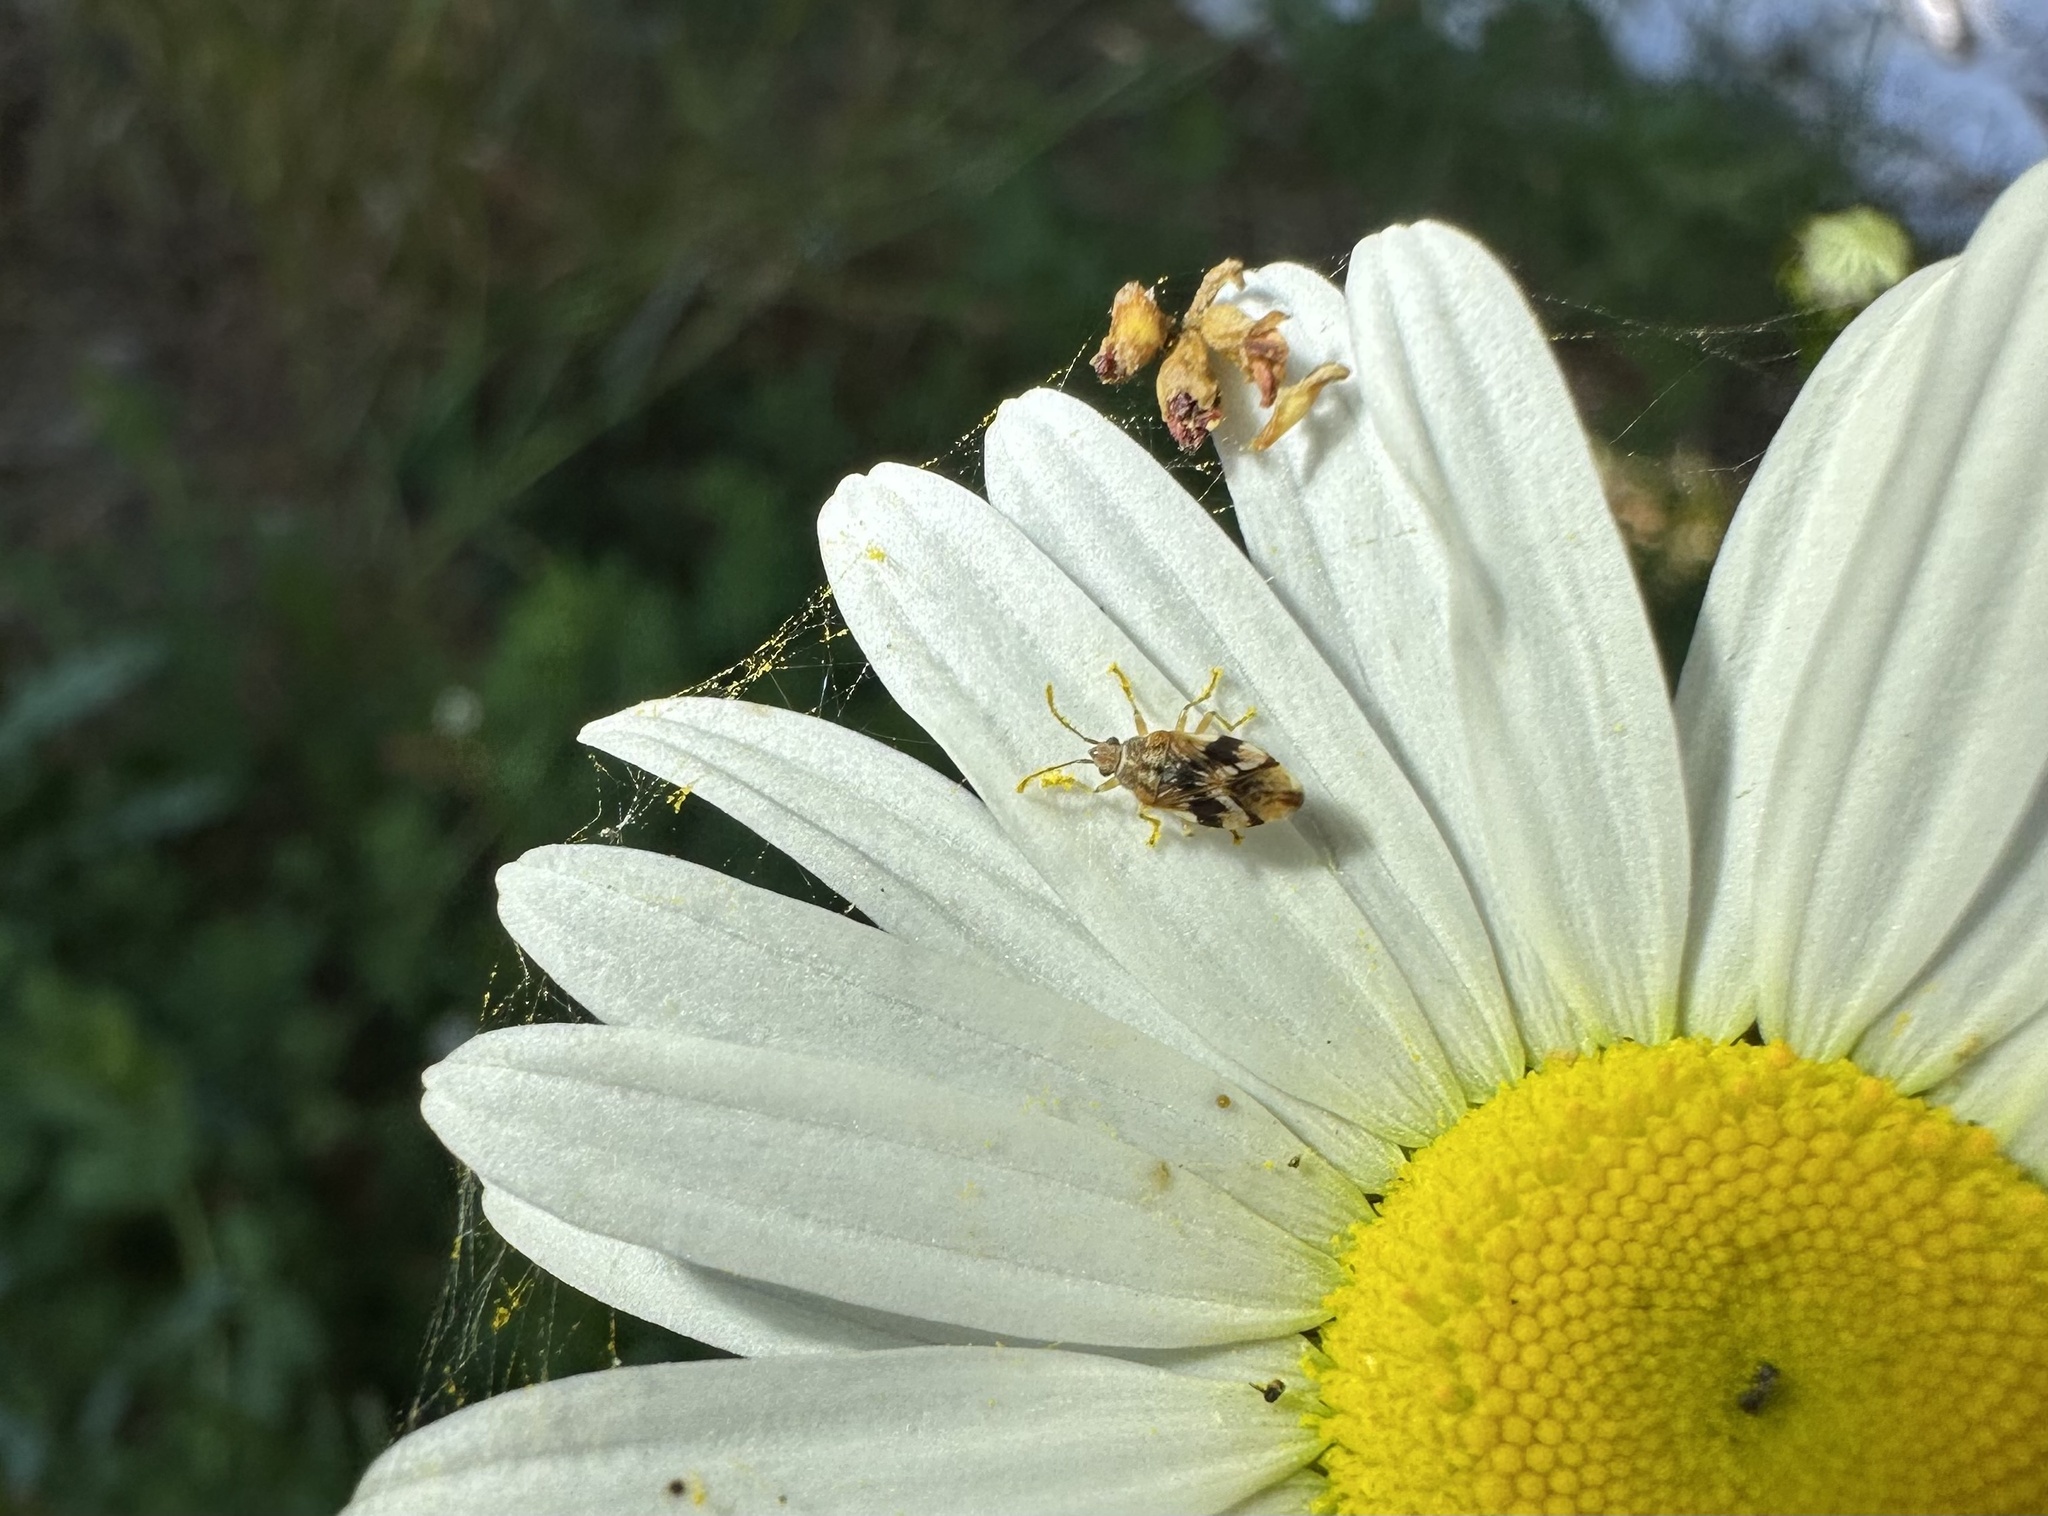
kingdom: Animalia
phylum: Arthropoda
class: Insecta
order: Hemiptera
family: Lygaeidae
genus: Syzygitis
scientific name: Syzygitis poecilus
